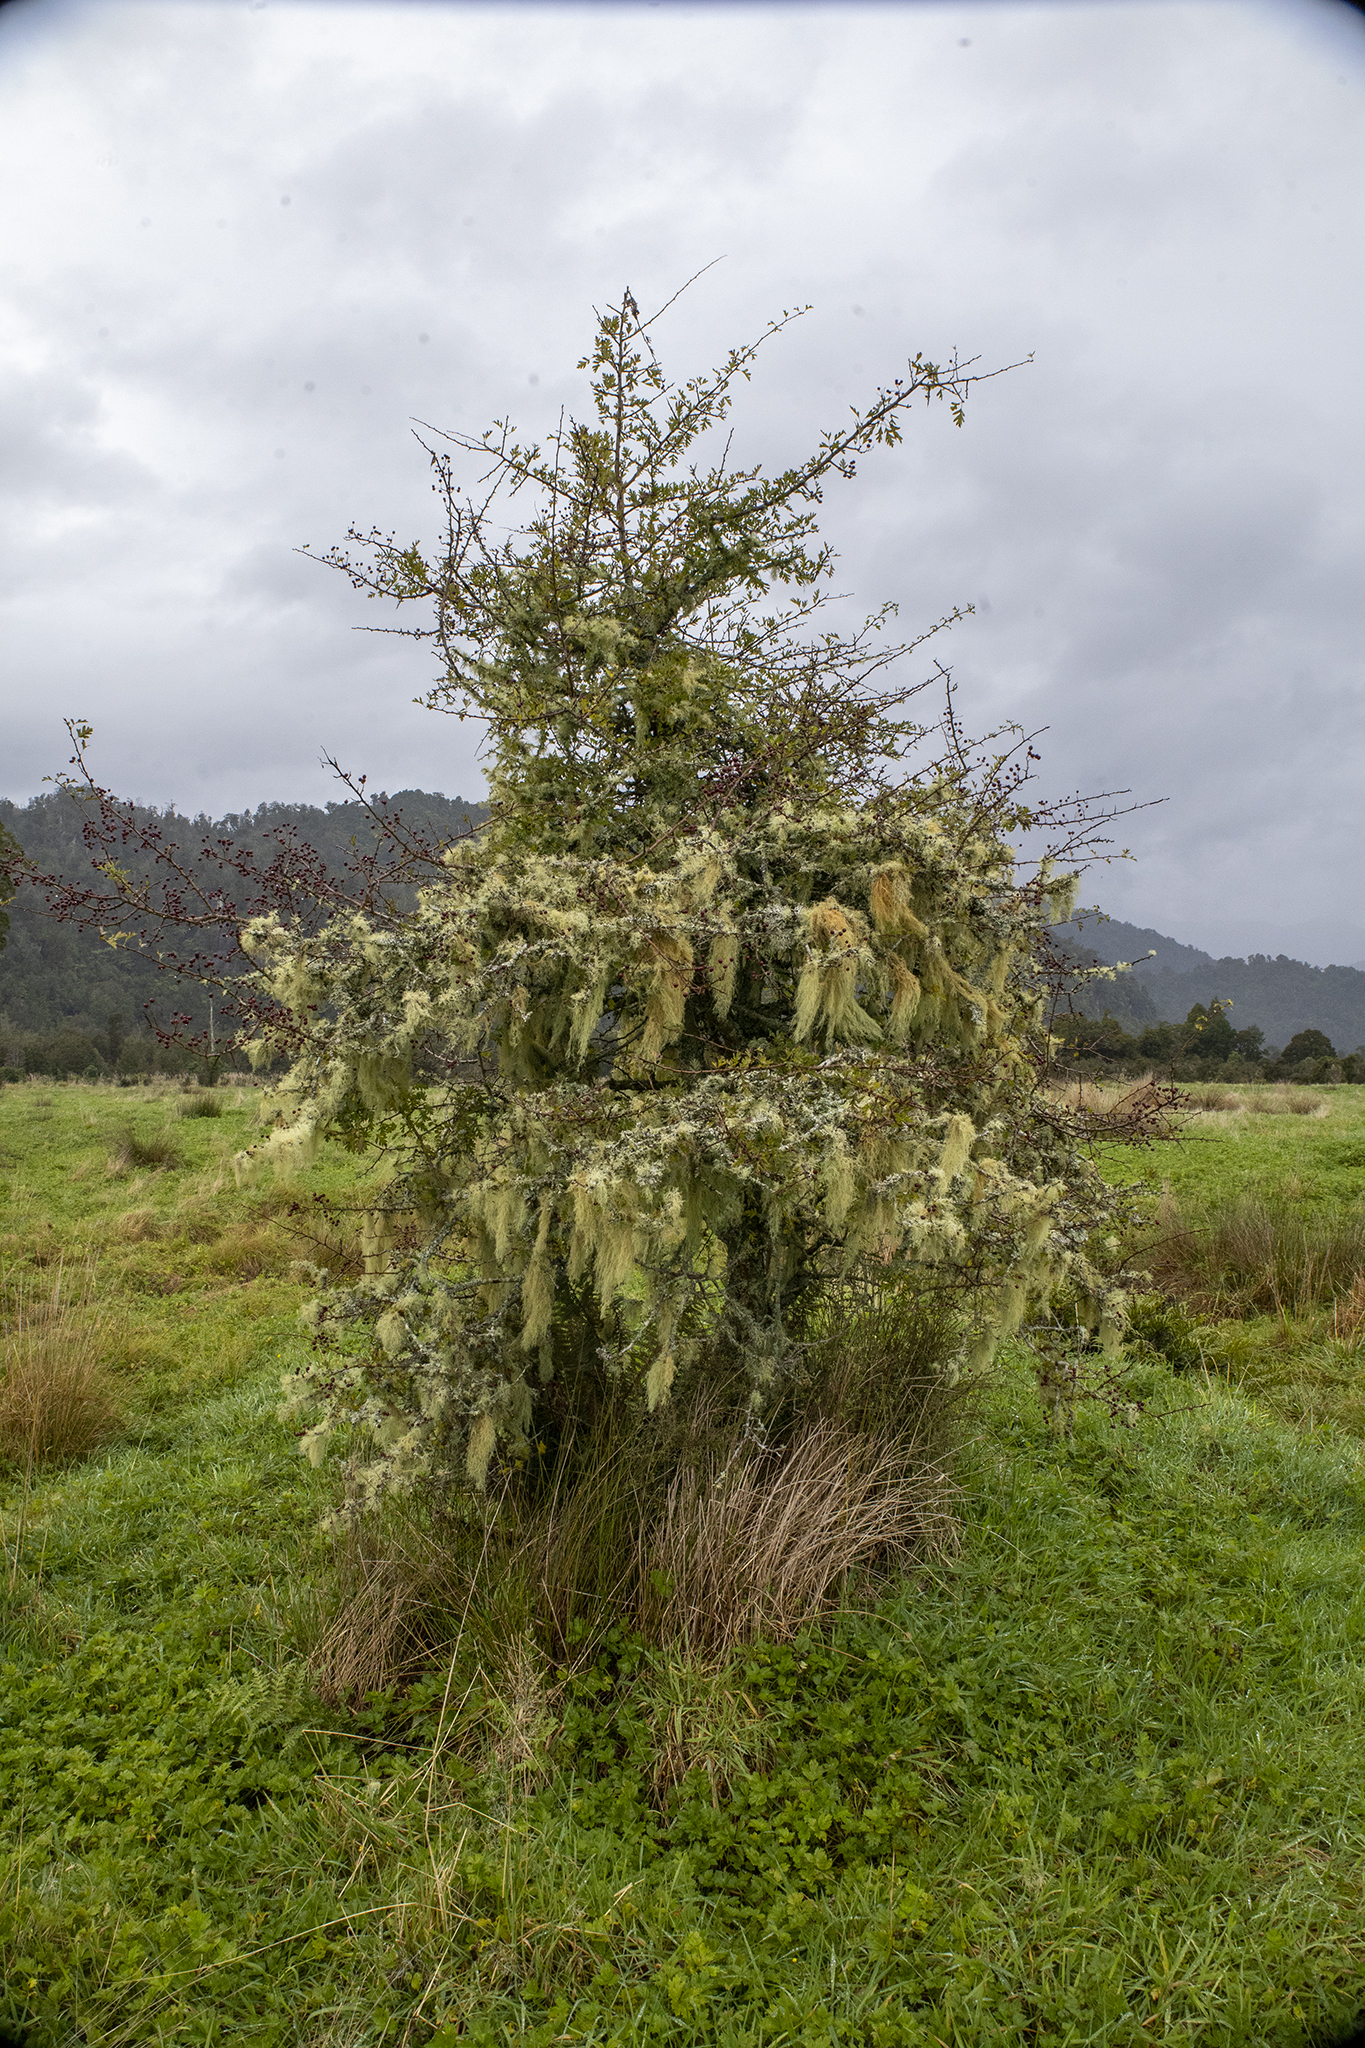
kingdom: Plantae
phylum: Tracheophyta
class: Magnoliopsida
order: Rosales
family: Rosaceae
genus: Crataegus
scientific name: Crataegus monogyna
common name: Hawthorn
